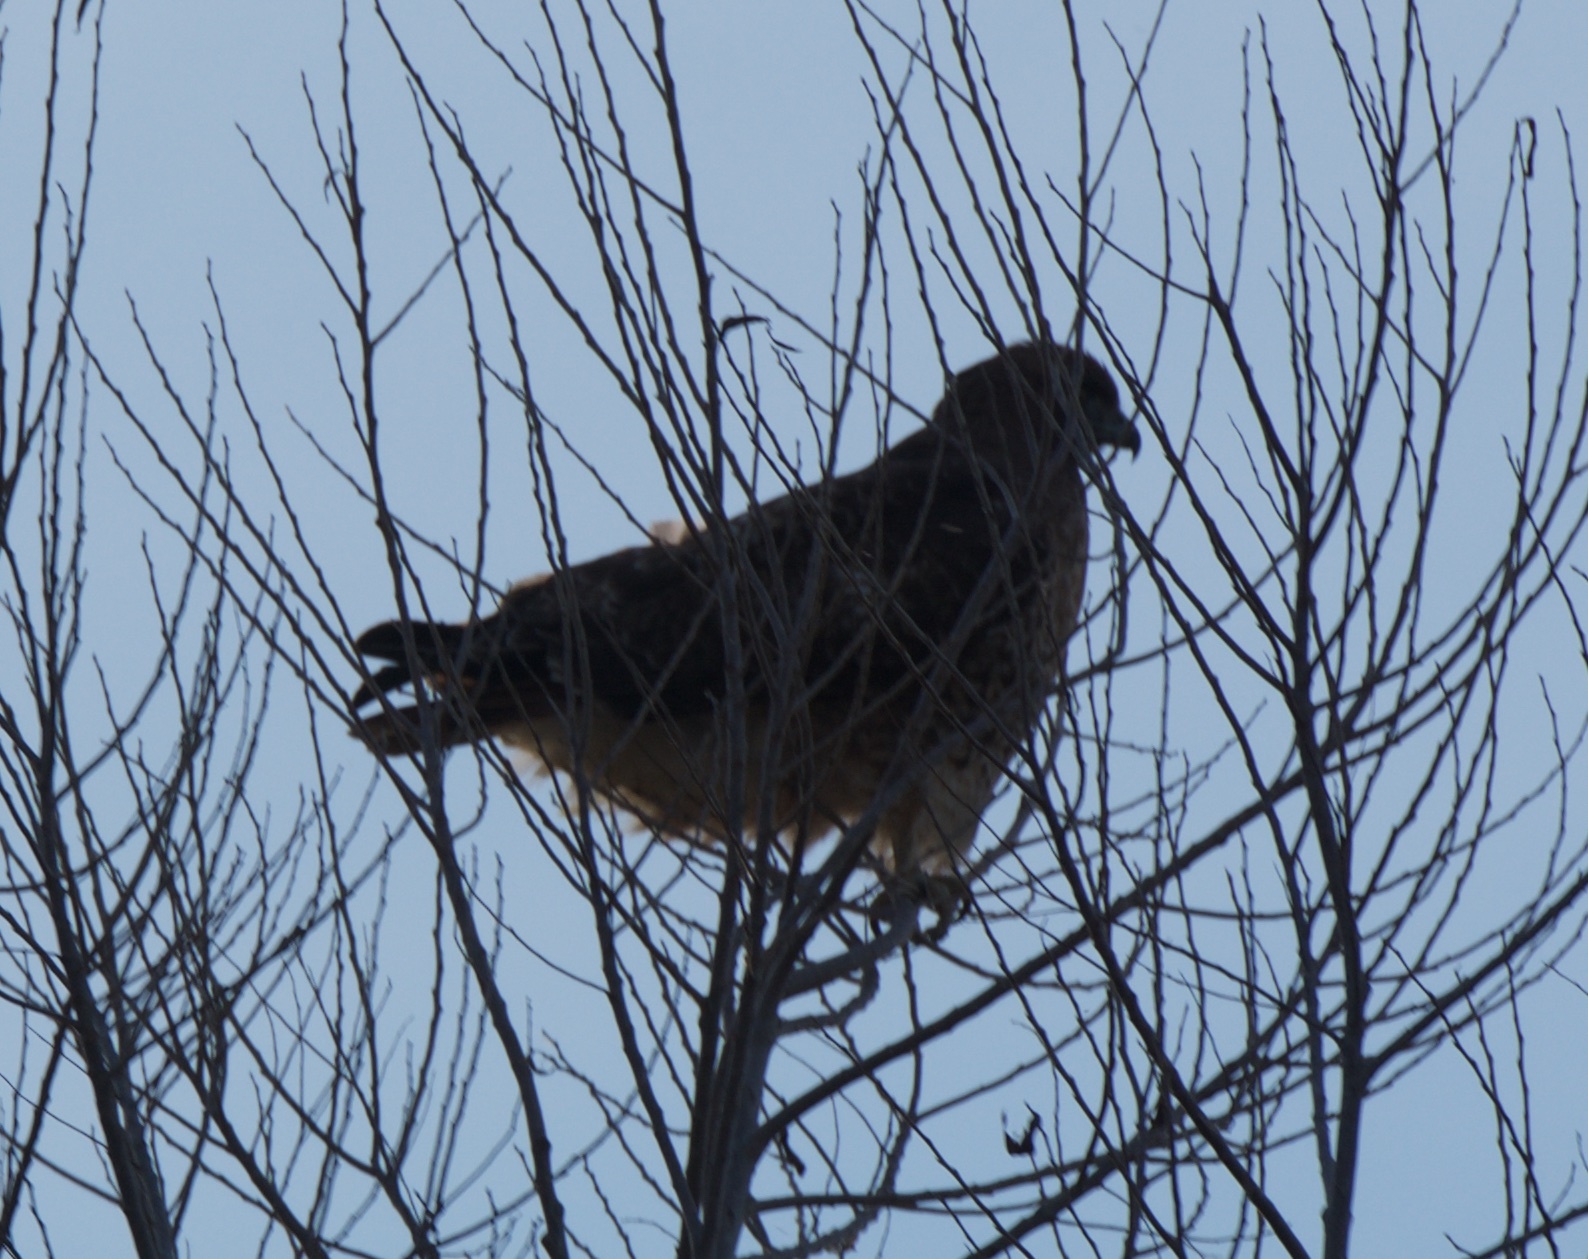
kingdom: Animalia
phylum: Chordata
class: Aves
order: Accipitriformes
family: Accipitridae
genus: Buteo
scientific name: Buteo jamaicensis
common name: Red-tailed hawk
